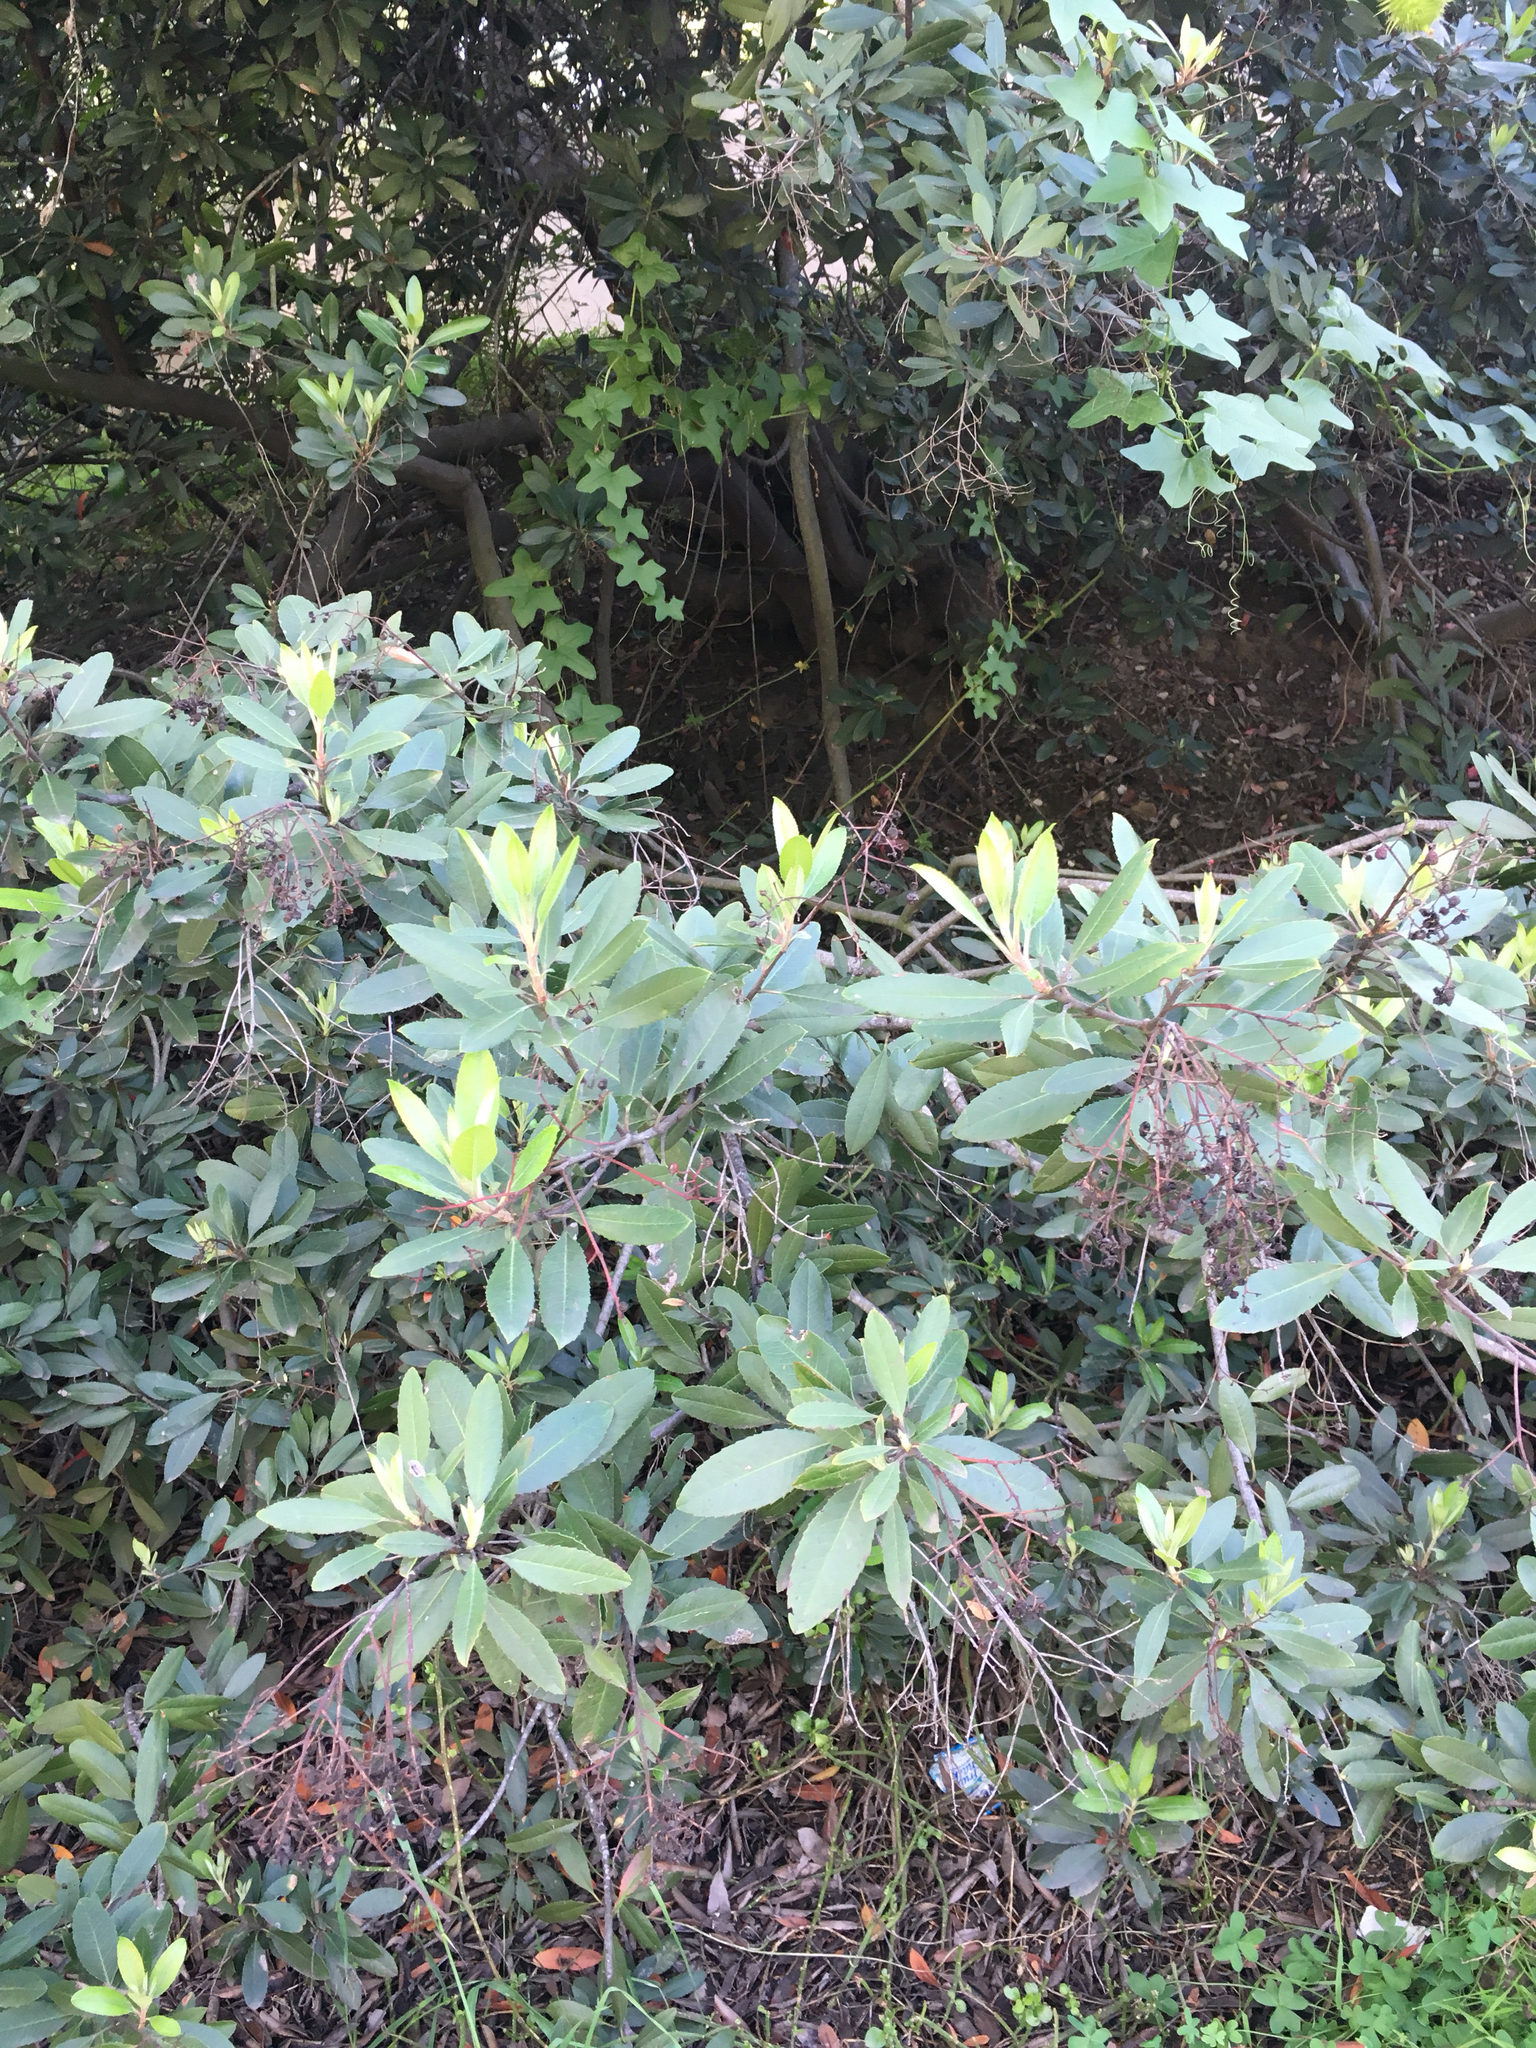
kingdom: Plantae
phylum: Tracheophyta
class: Magnoliopsida
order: Rosales
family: Rosaceae
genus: Heteromeles
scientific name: Heteromeles arbutifolia
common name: California-holly
